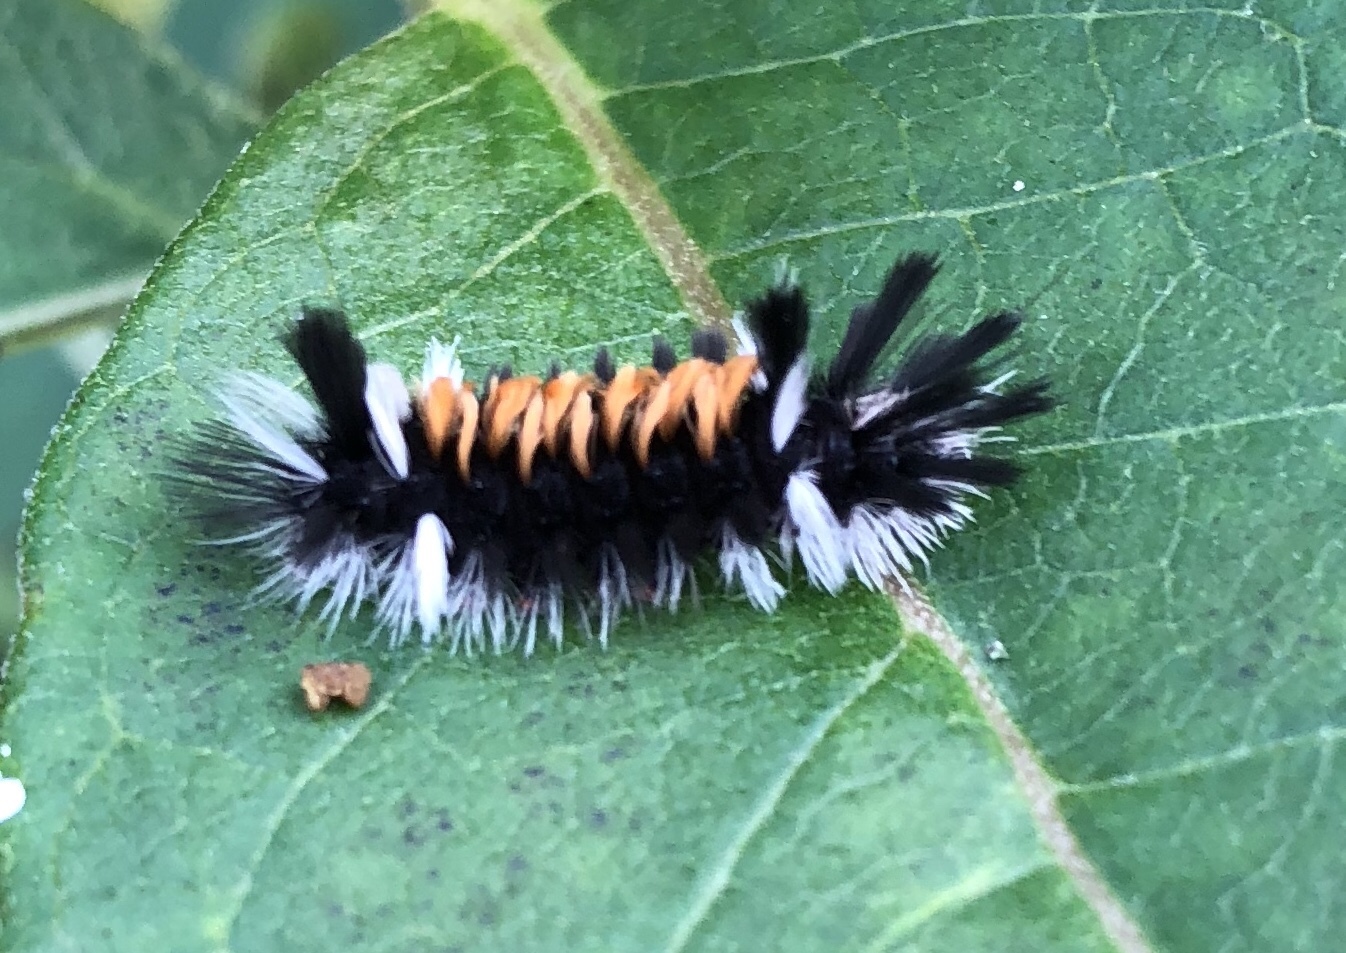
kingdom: Animalia
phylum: Arthropoda
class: Insecta
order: Lepidoptera
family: Erebidae
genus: Euchaetes
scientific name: Euchaetes egle
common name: Milkweed tussock moth
